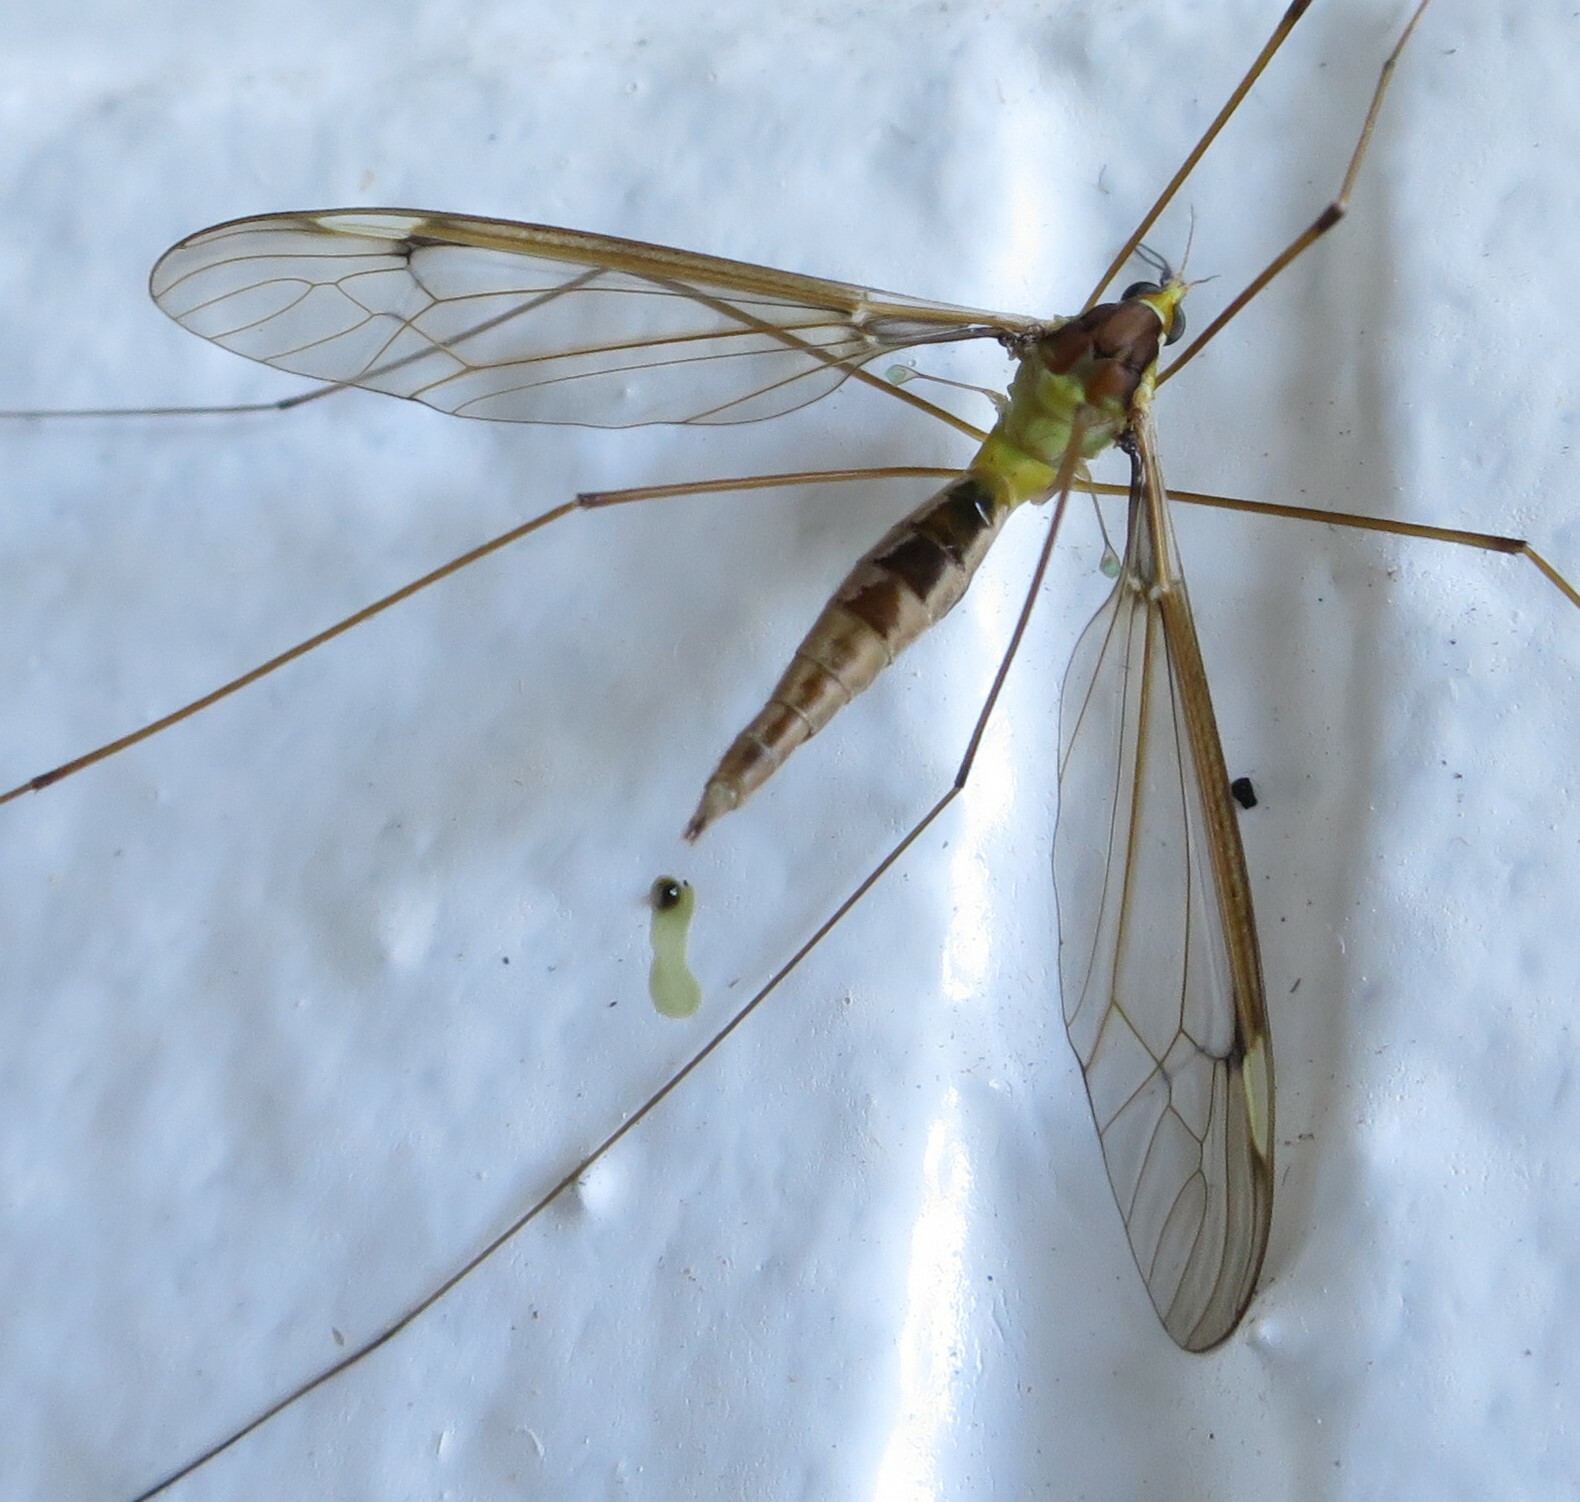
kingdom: Animalia
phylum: Arthropoda
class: Insecta
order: Diptera
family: Tipulidae
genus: Leptotarsus
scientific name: Leptotarsus albistigma
